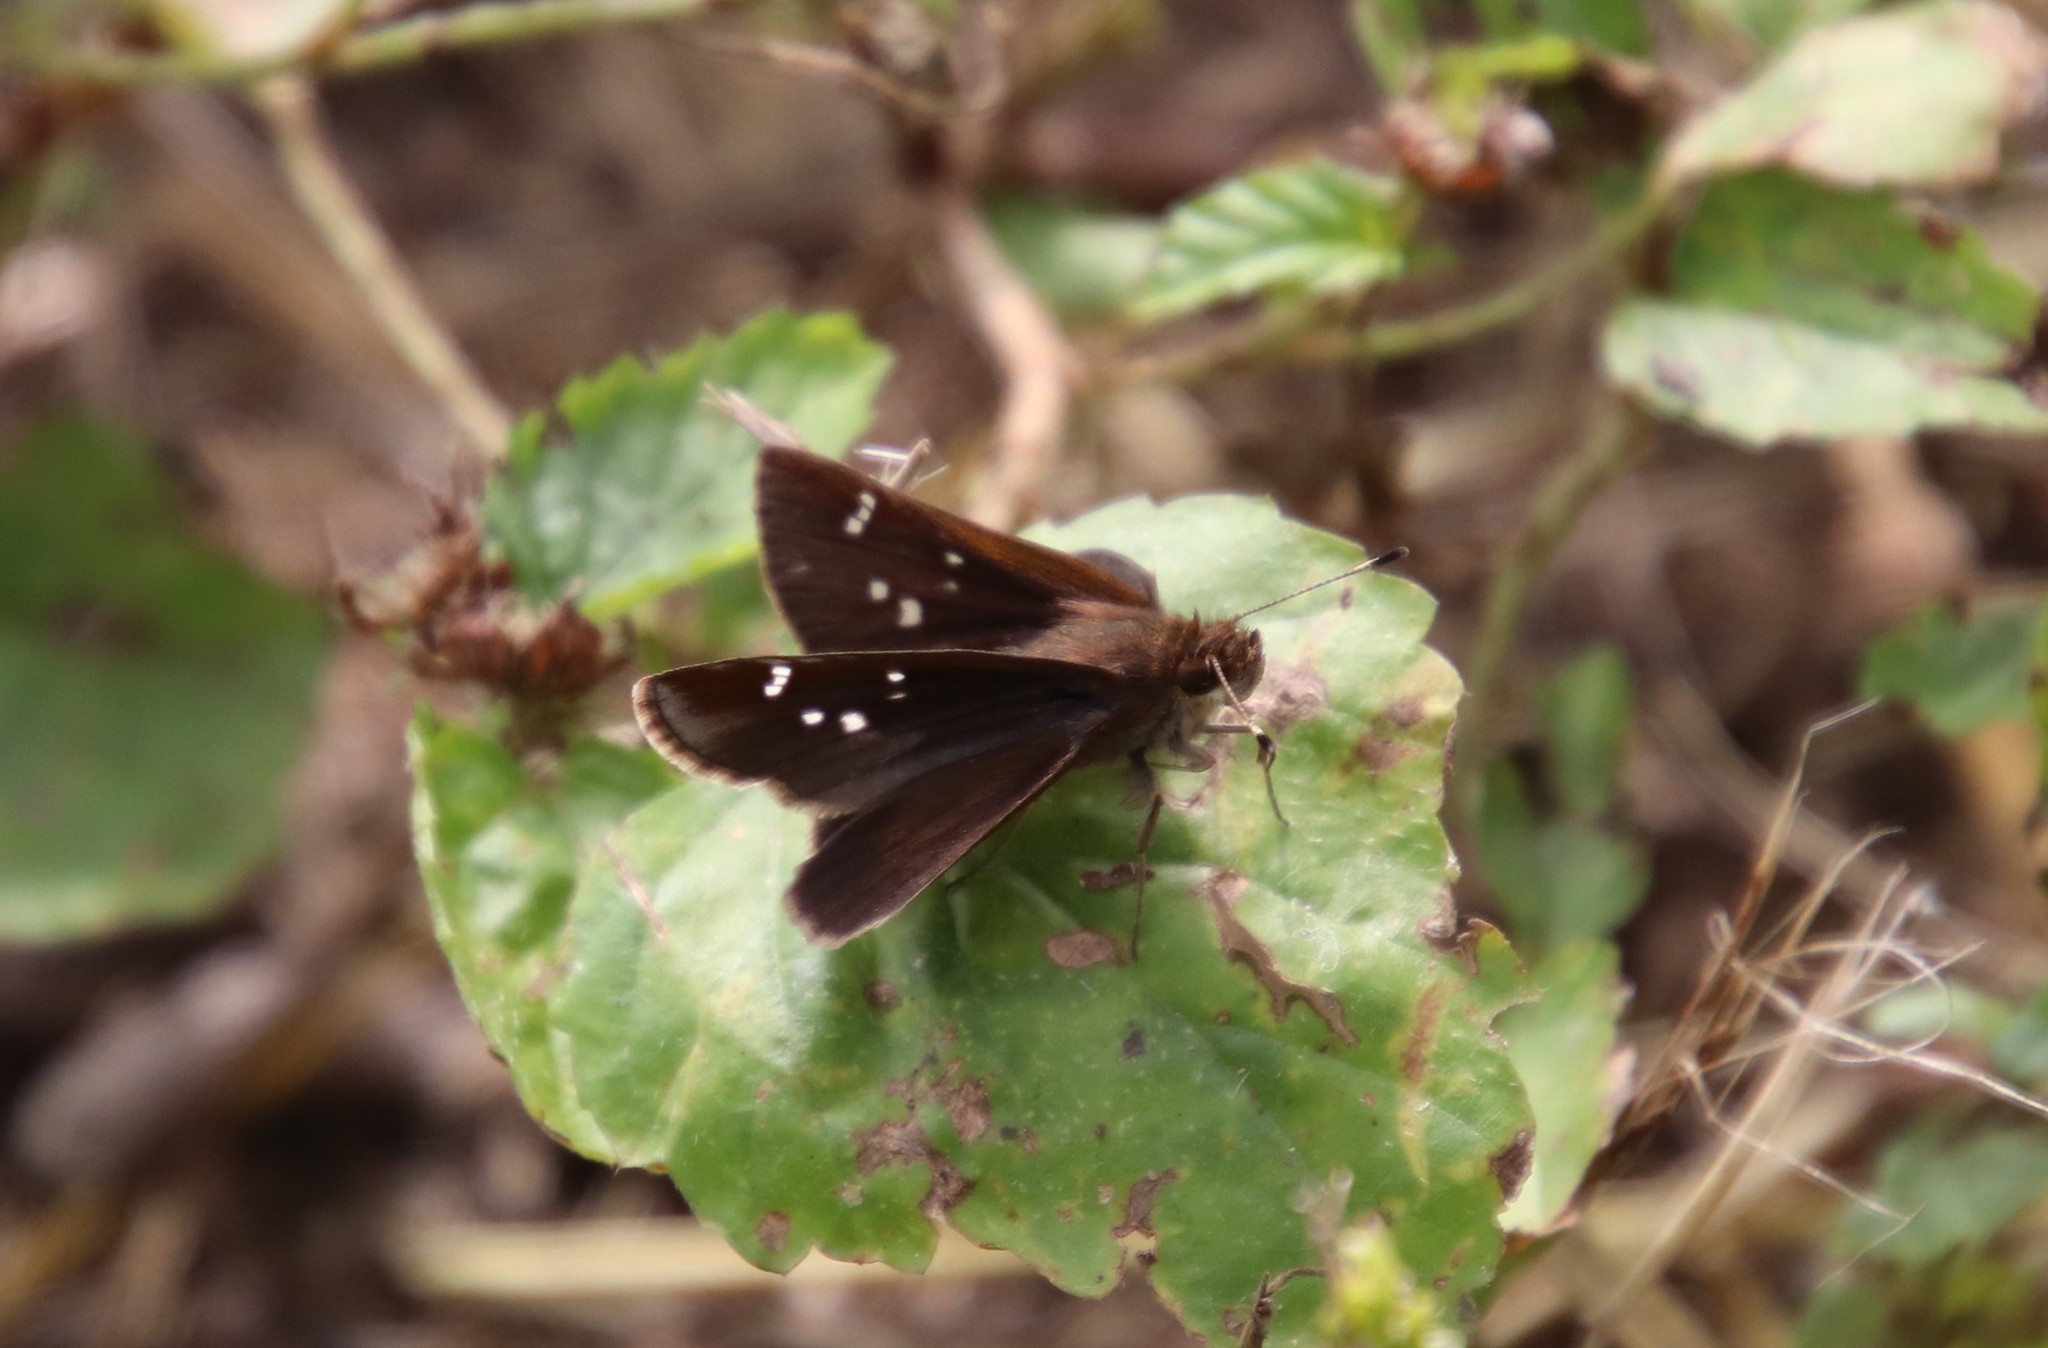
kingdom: Animalia
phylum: Arthropoda
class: Insecta
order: Lepidoptera
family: Hesperiidae
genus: Lerema
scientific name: Lerema accius
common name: Clouded skipper
